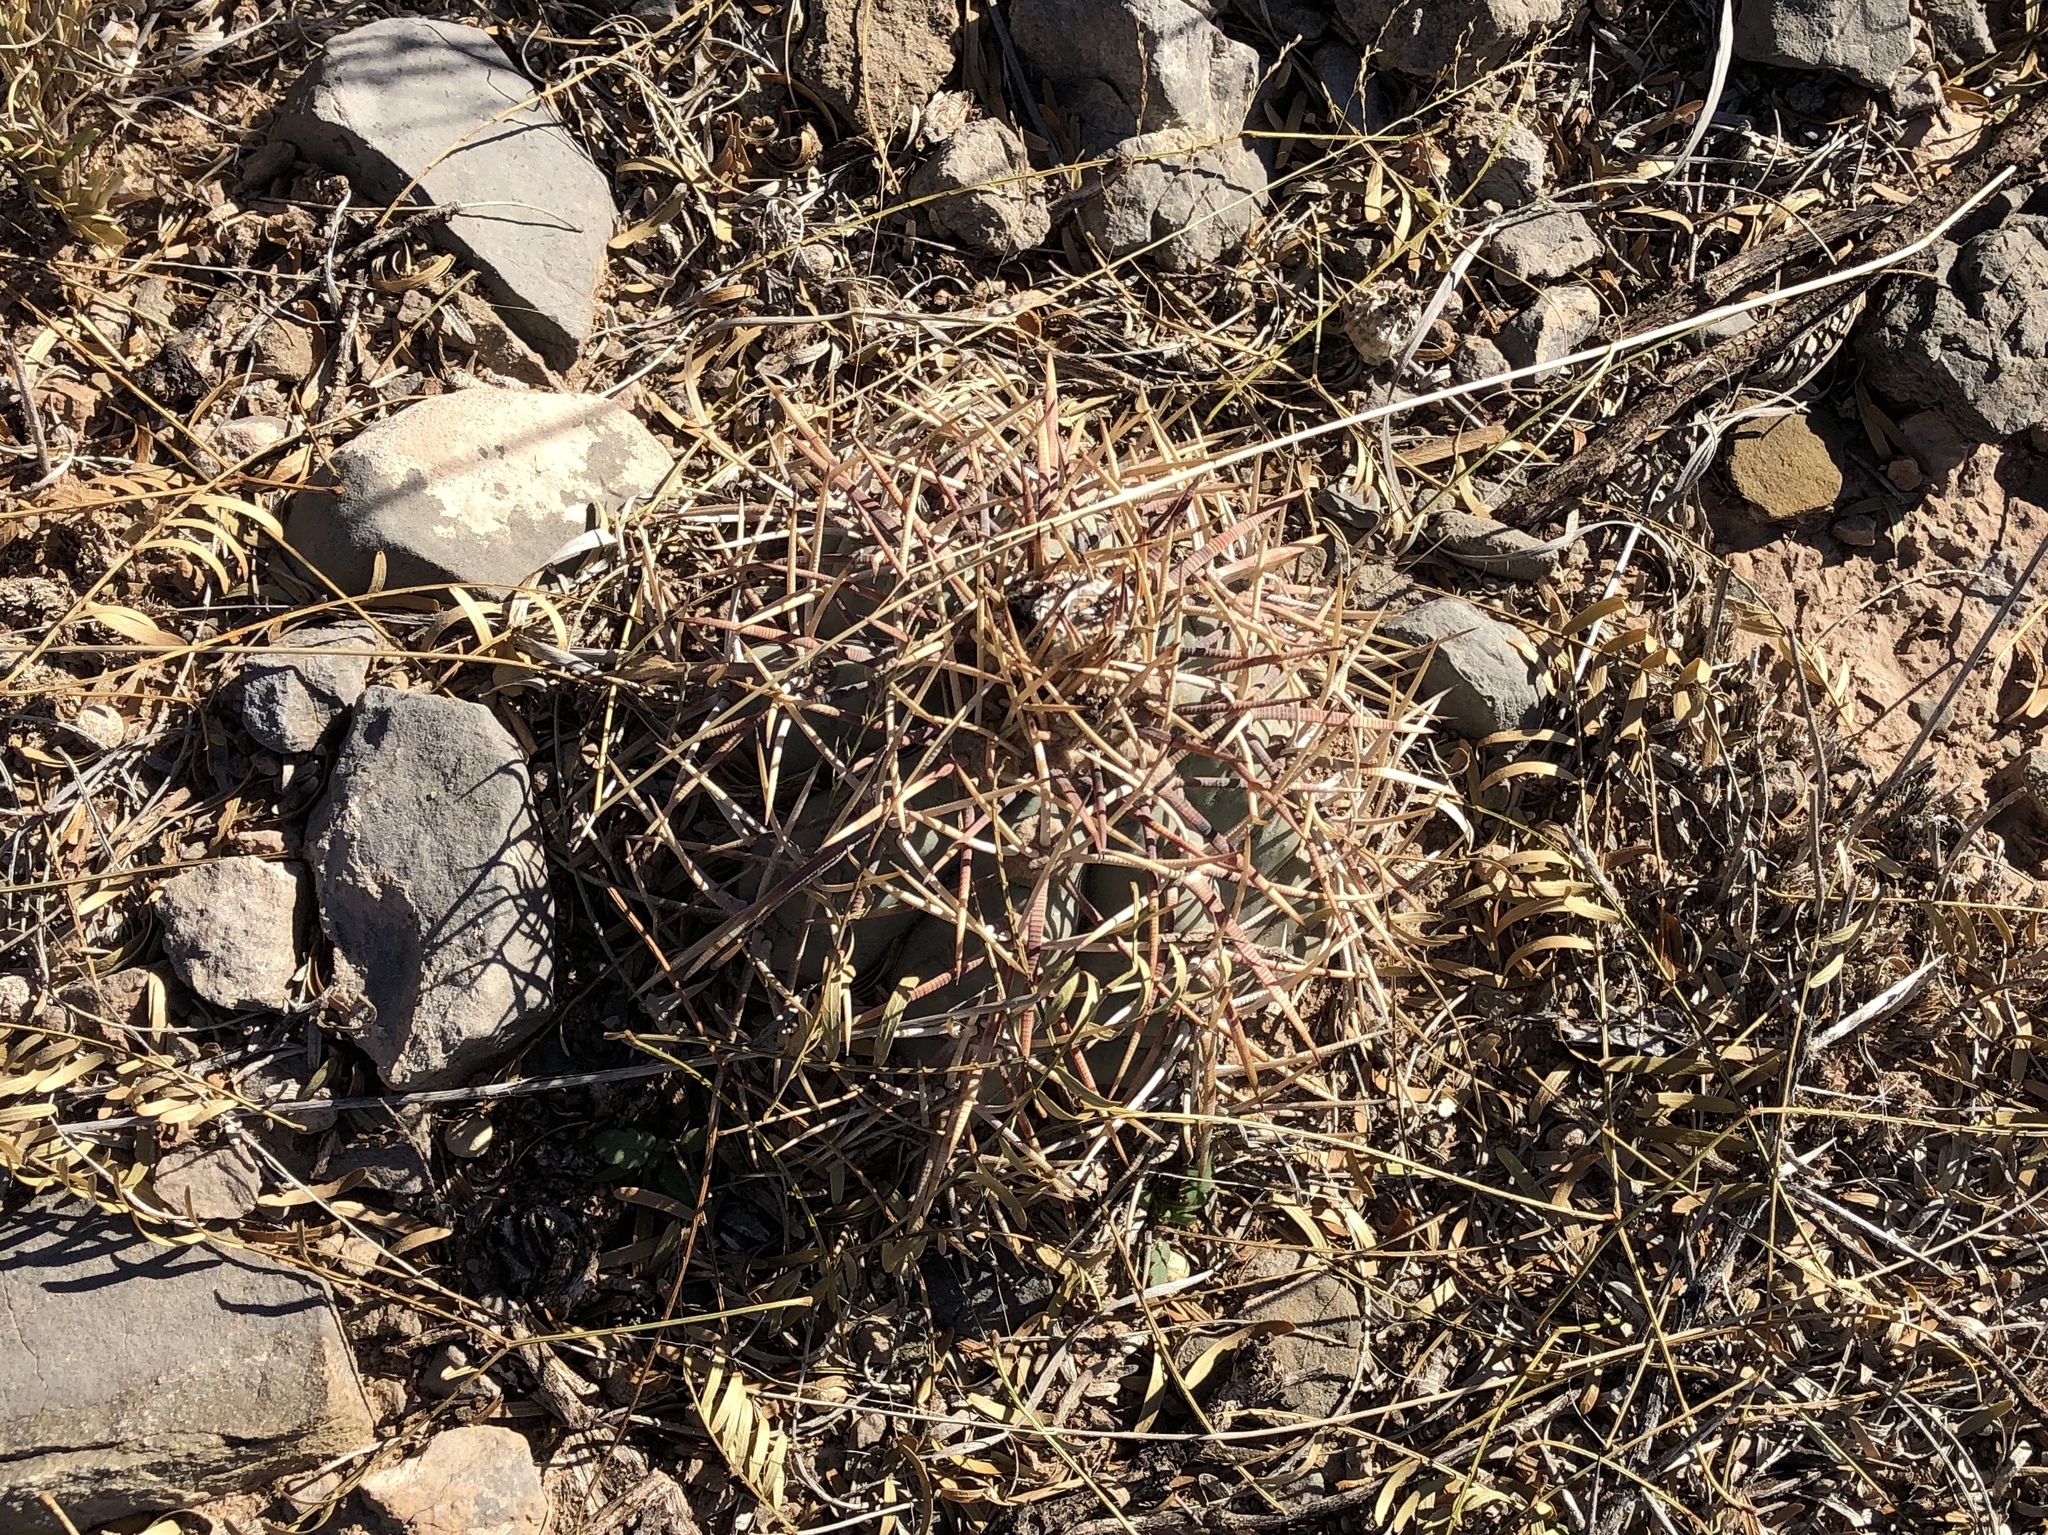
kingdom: Plantae
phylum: Tracheophyta
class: Magnoliopsida
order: Caryophyllales
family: Cactaceae
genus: Echinocactus
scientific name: Echinocactus horizonthalonius
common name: Devilshead
